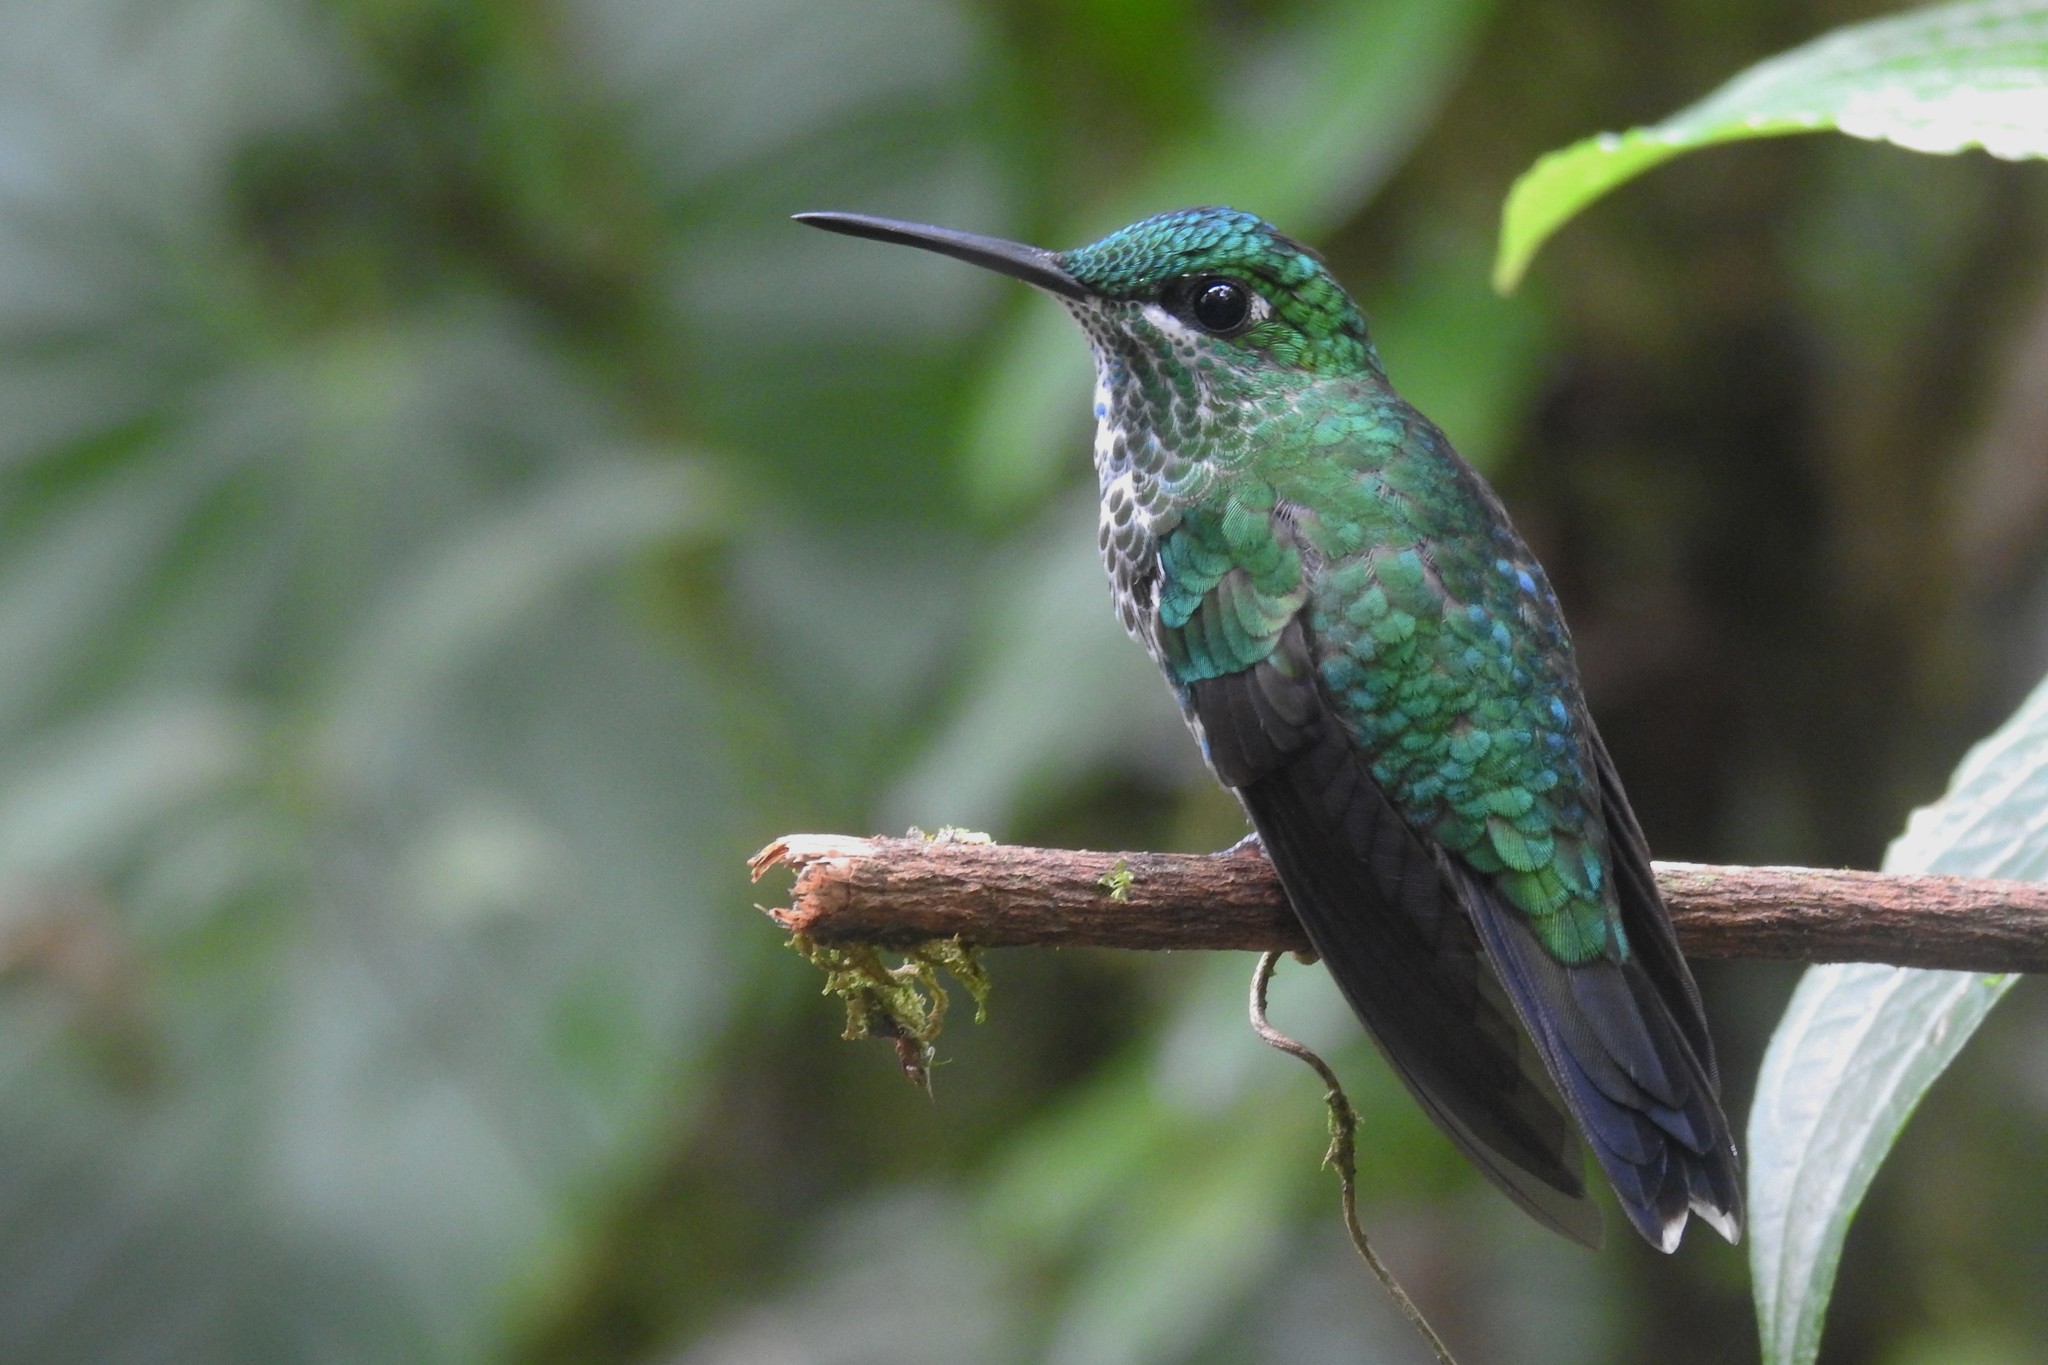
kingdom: Animalia
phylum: Chordata
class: Aves
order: Apodiformes
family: Trochilidae
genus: Heliodoxa
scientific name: Heliodoxa jacula
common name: Green-crowned brilliant
